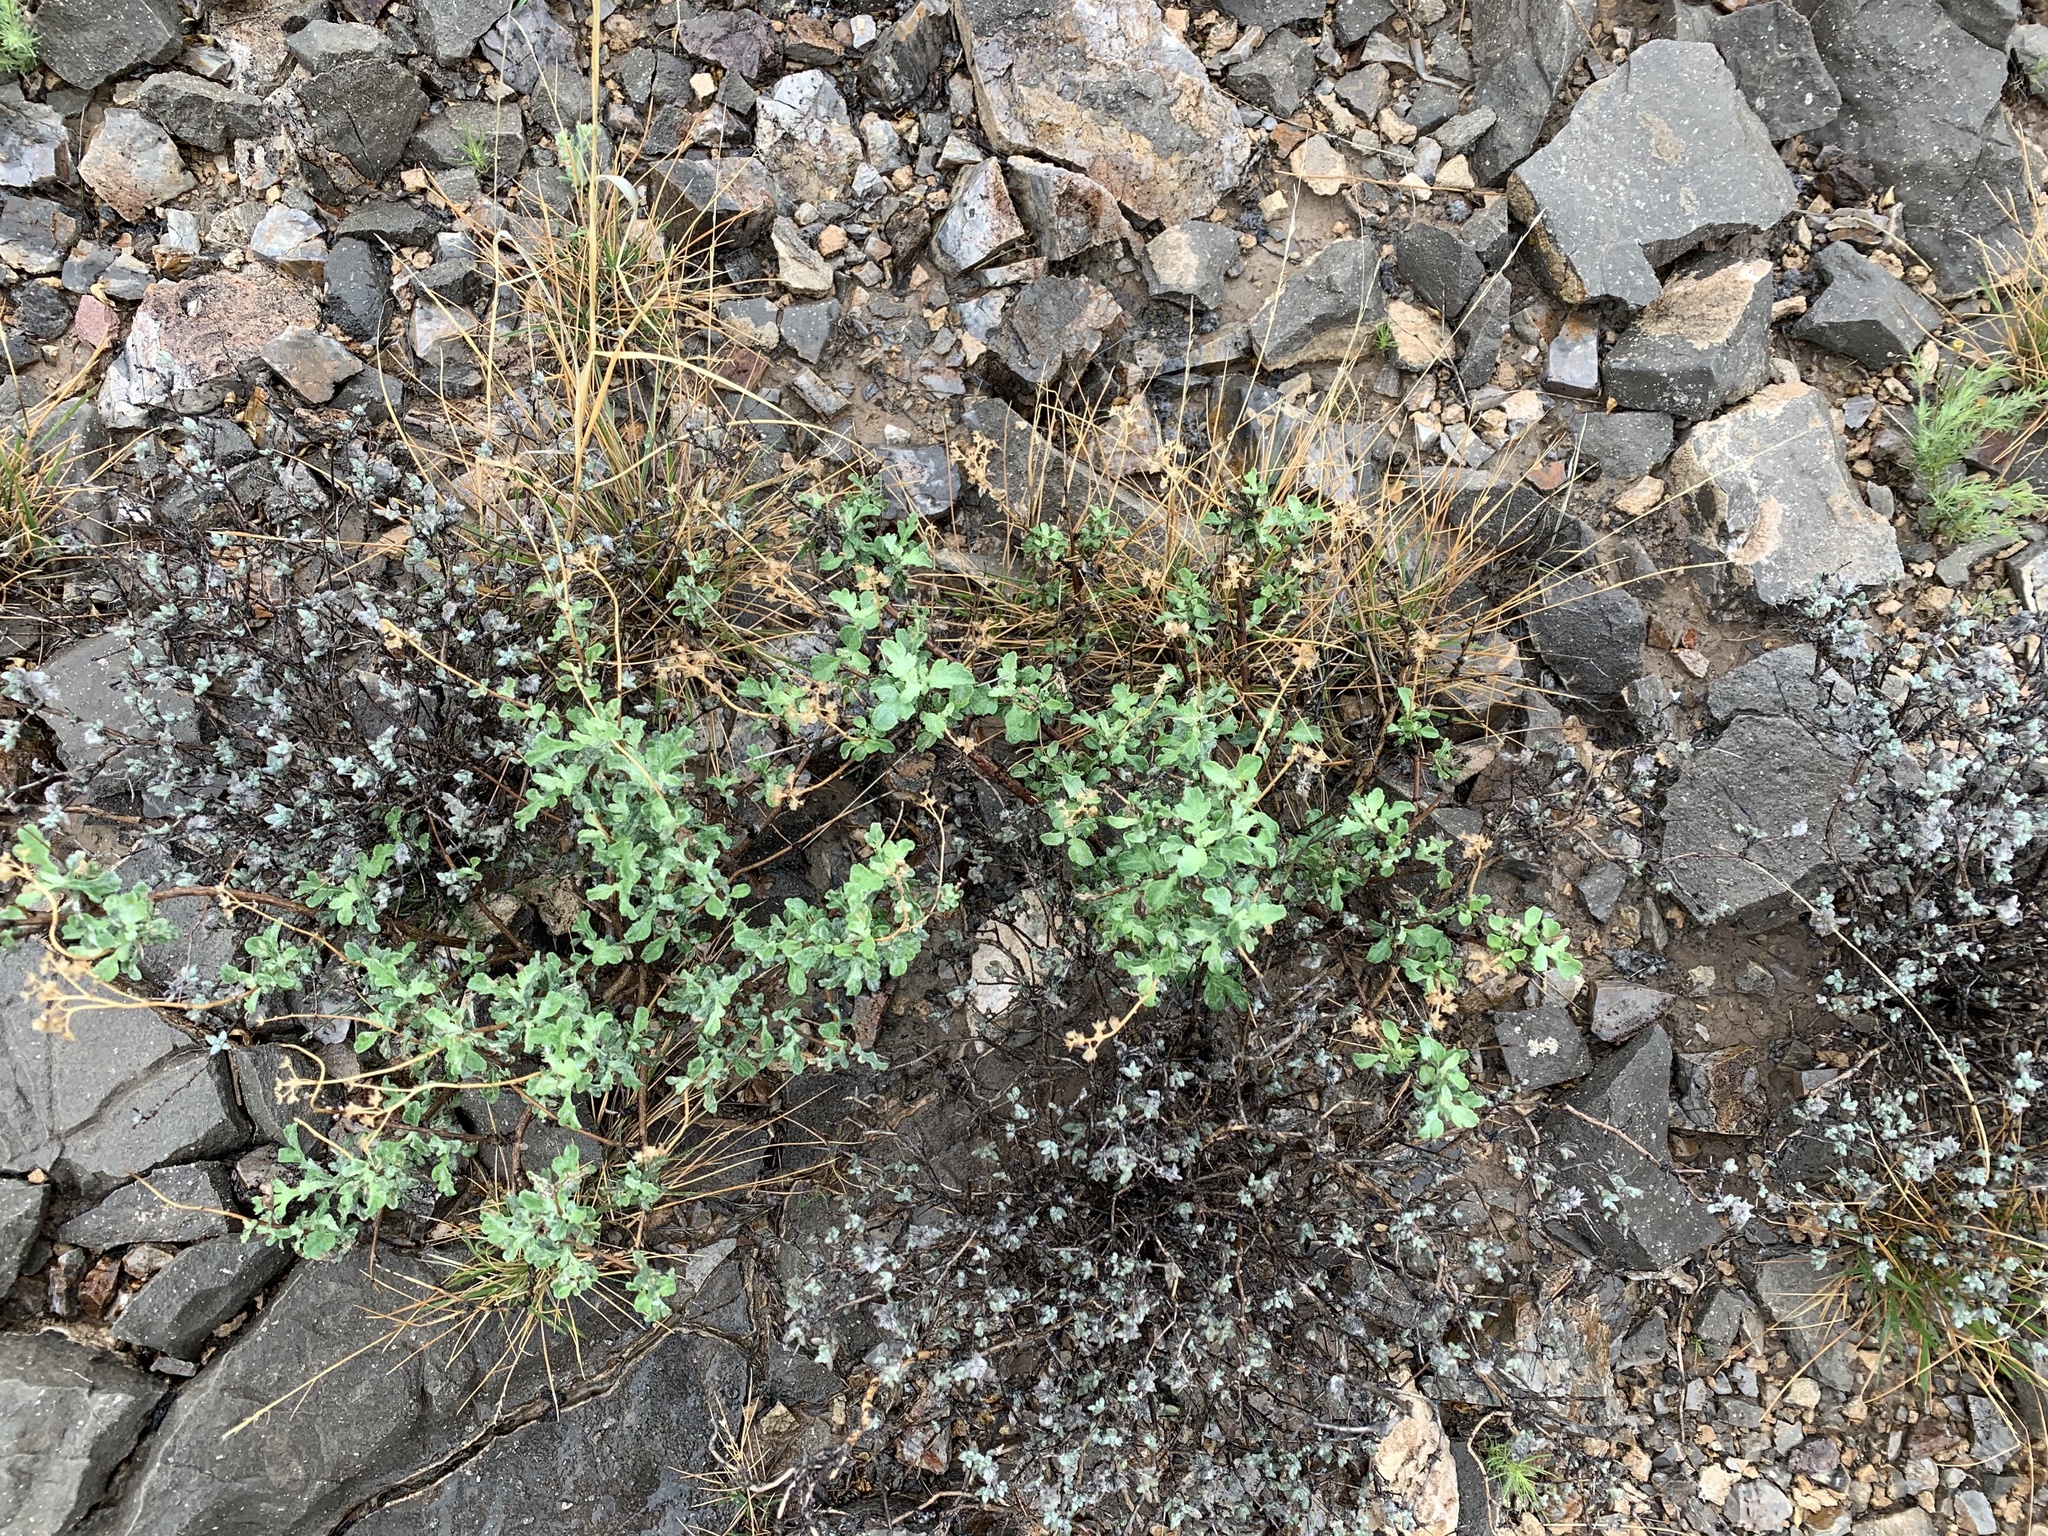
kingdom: Plantae
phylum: Tracheophyta
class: Magnoliopsida
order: Asterales
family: Asteraceae
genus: Parthenium
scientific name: Parthenium incanum
